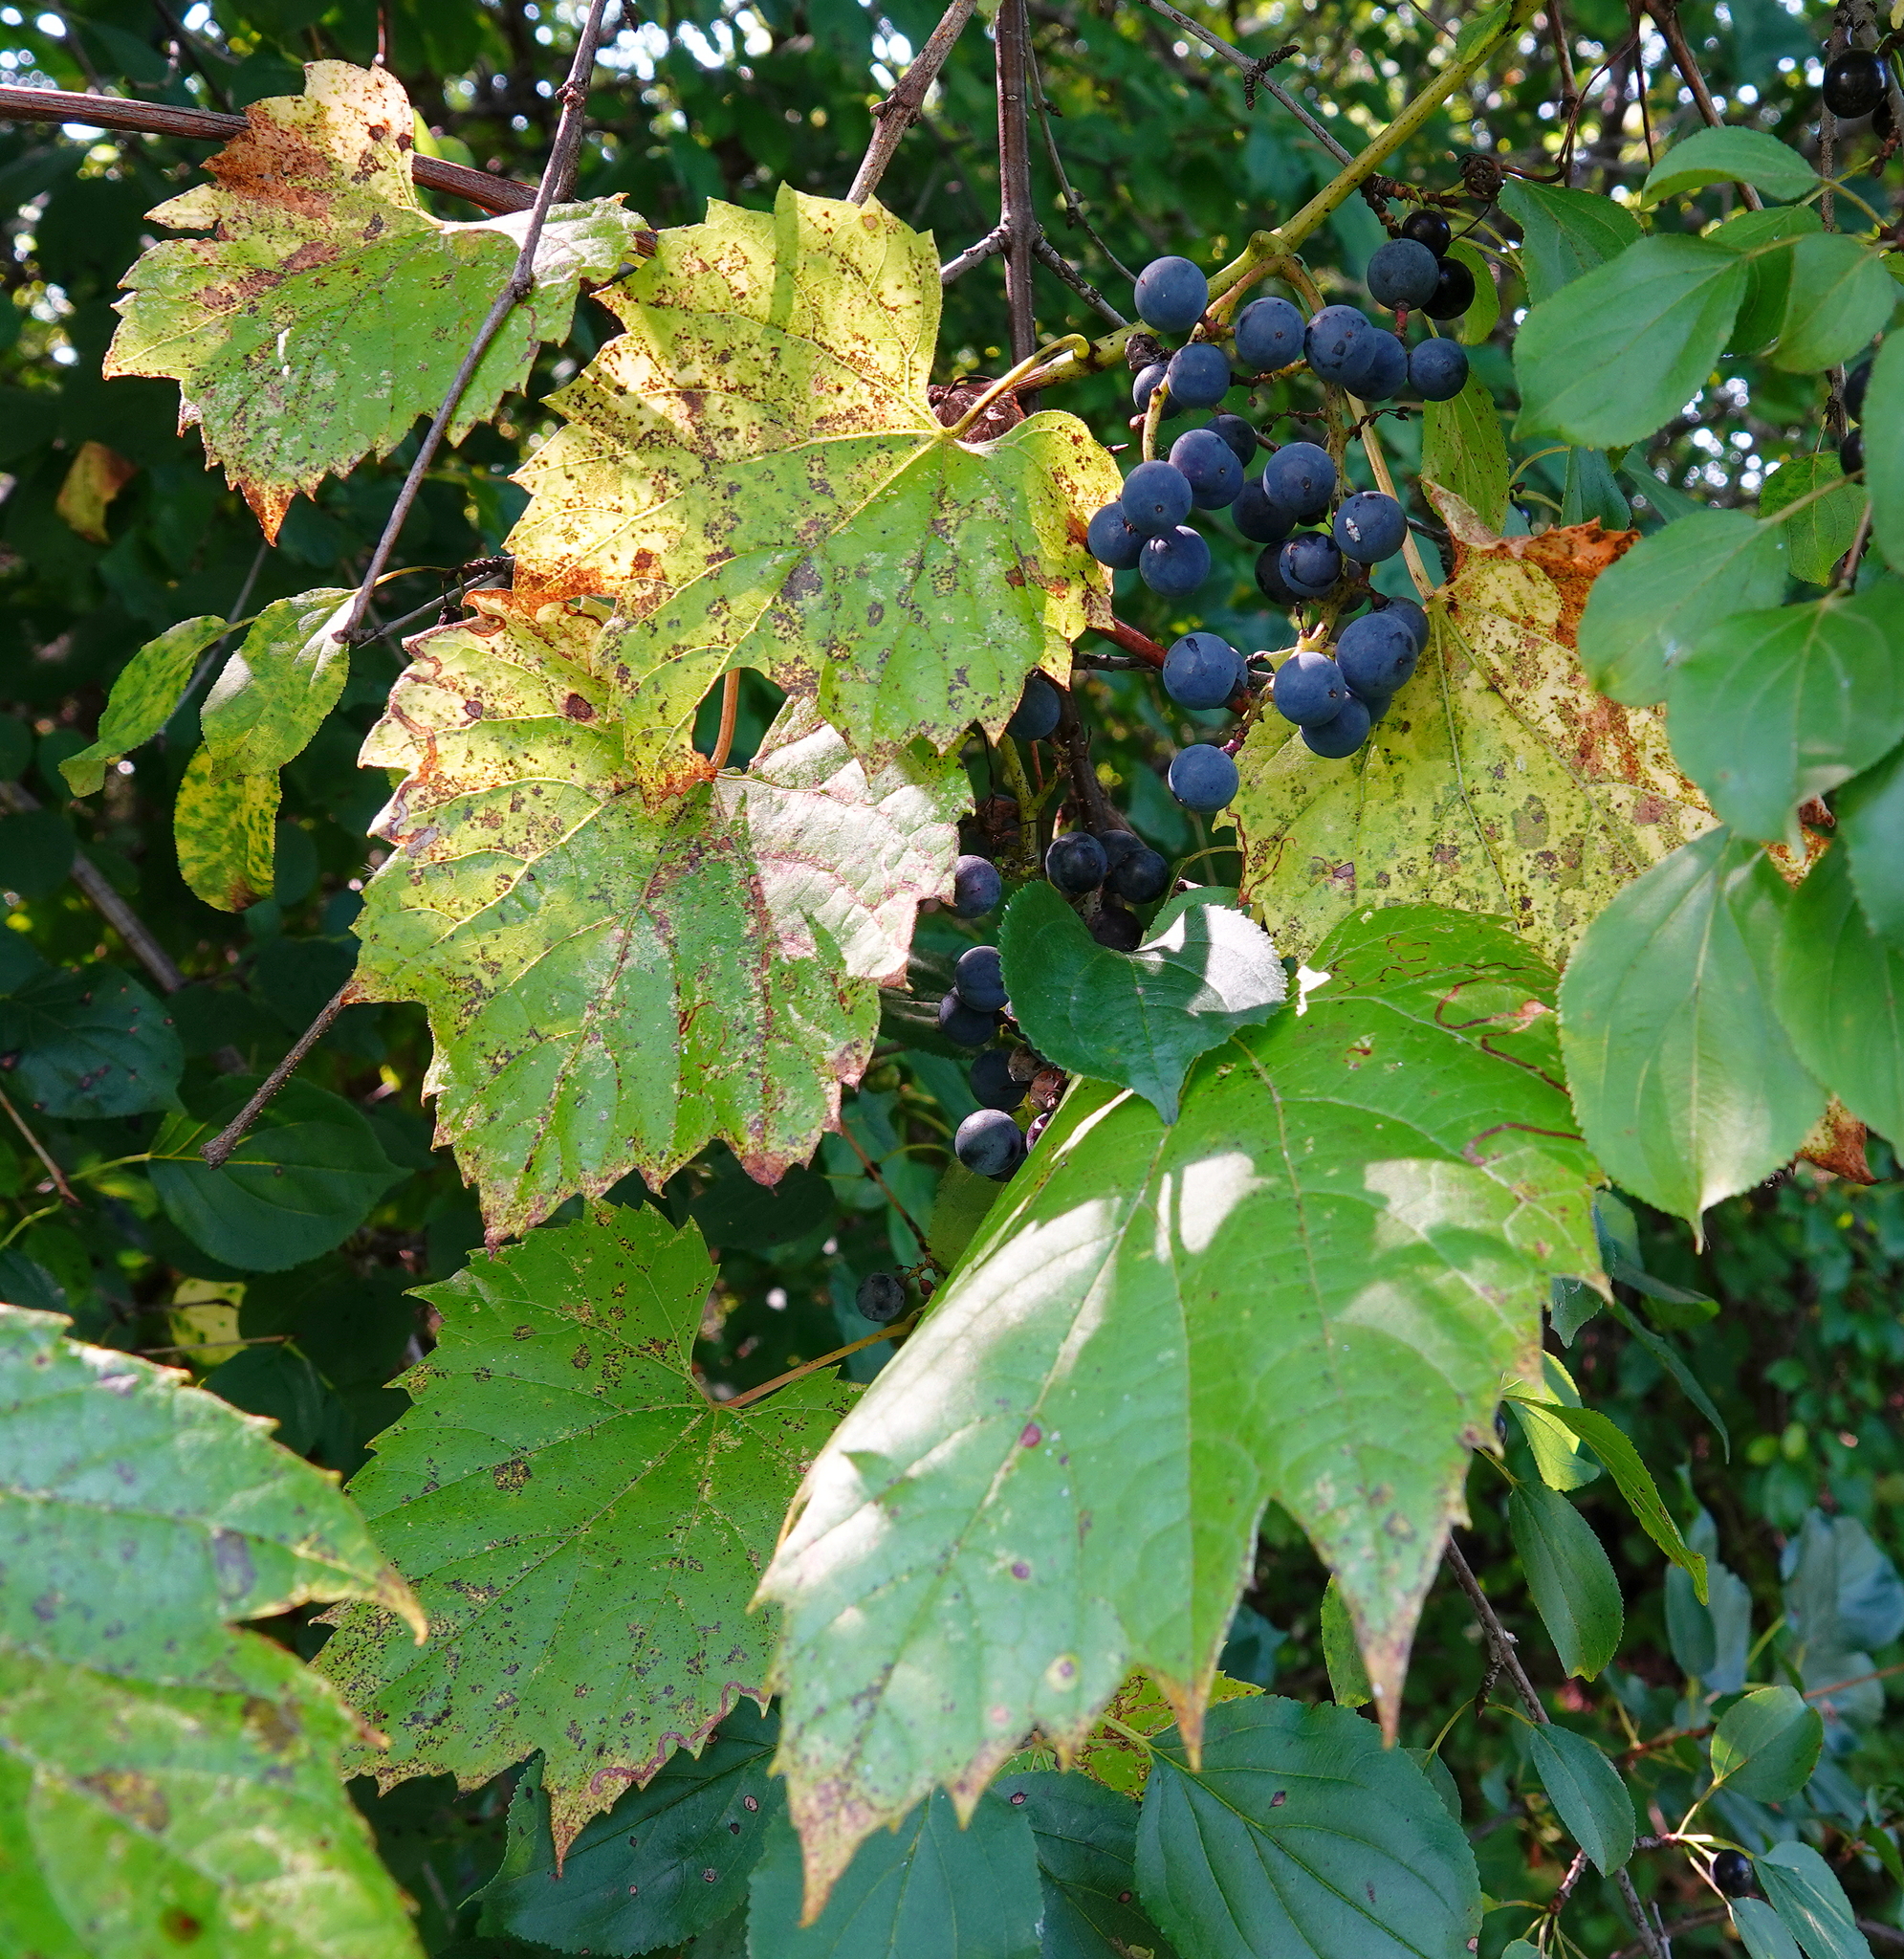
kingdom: Plantae
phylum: Tracheophyta
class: Magnoliopsida
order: Vitales
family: Vitaceae
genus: Vitis
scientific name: Vitis riparia
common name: Frost grape
